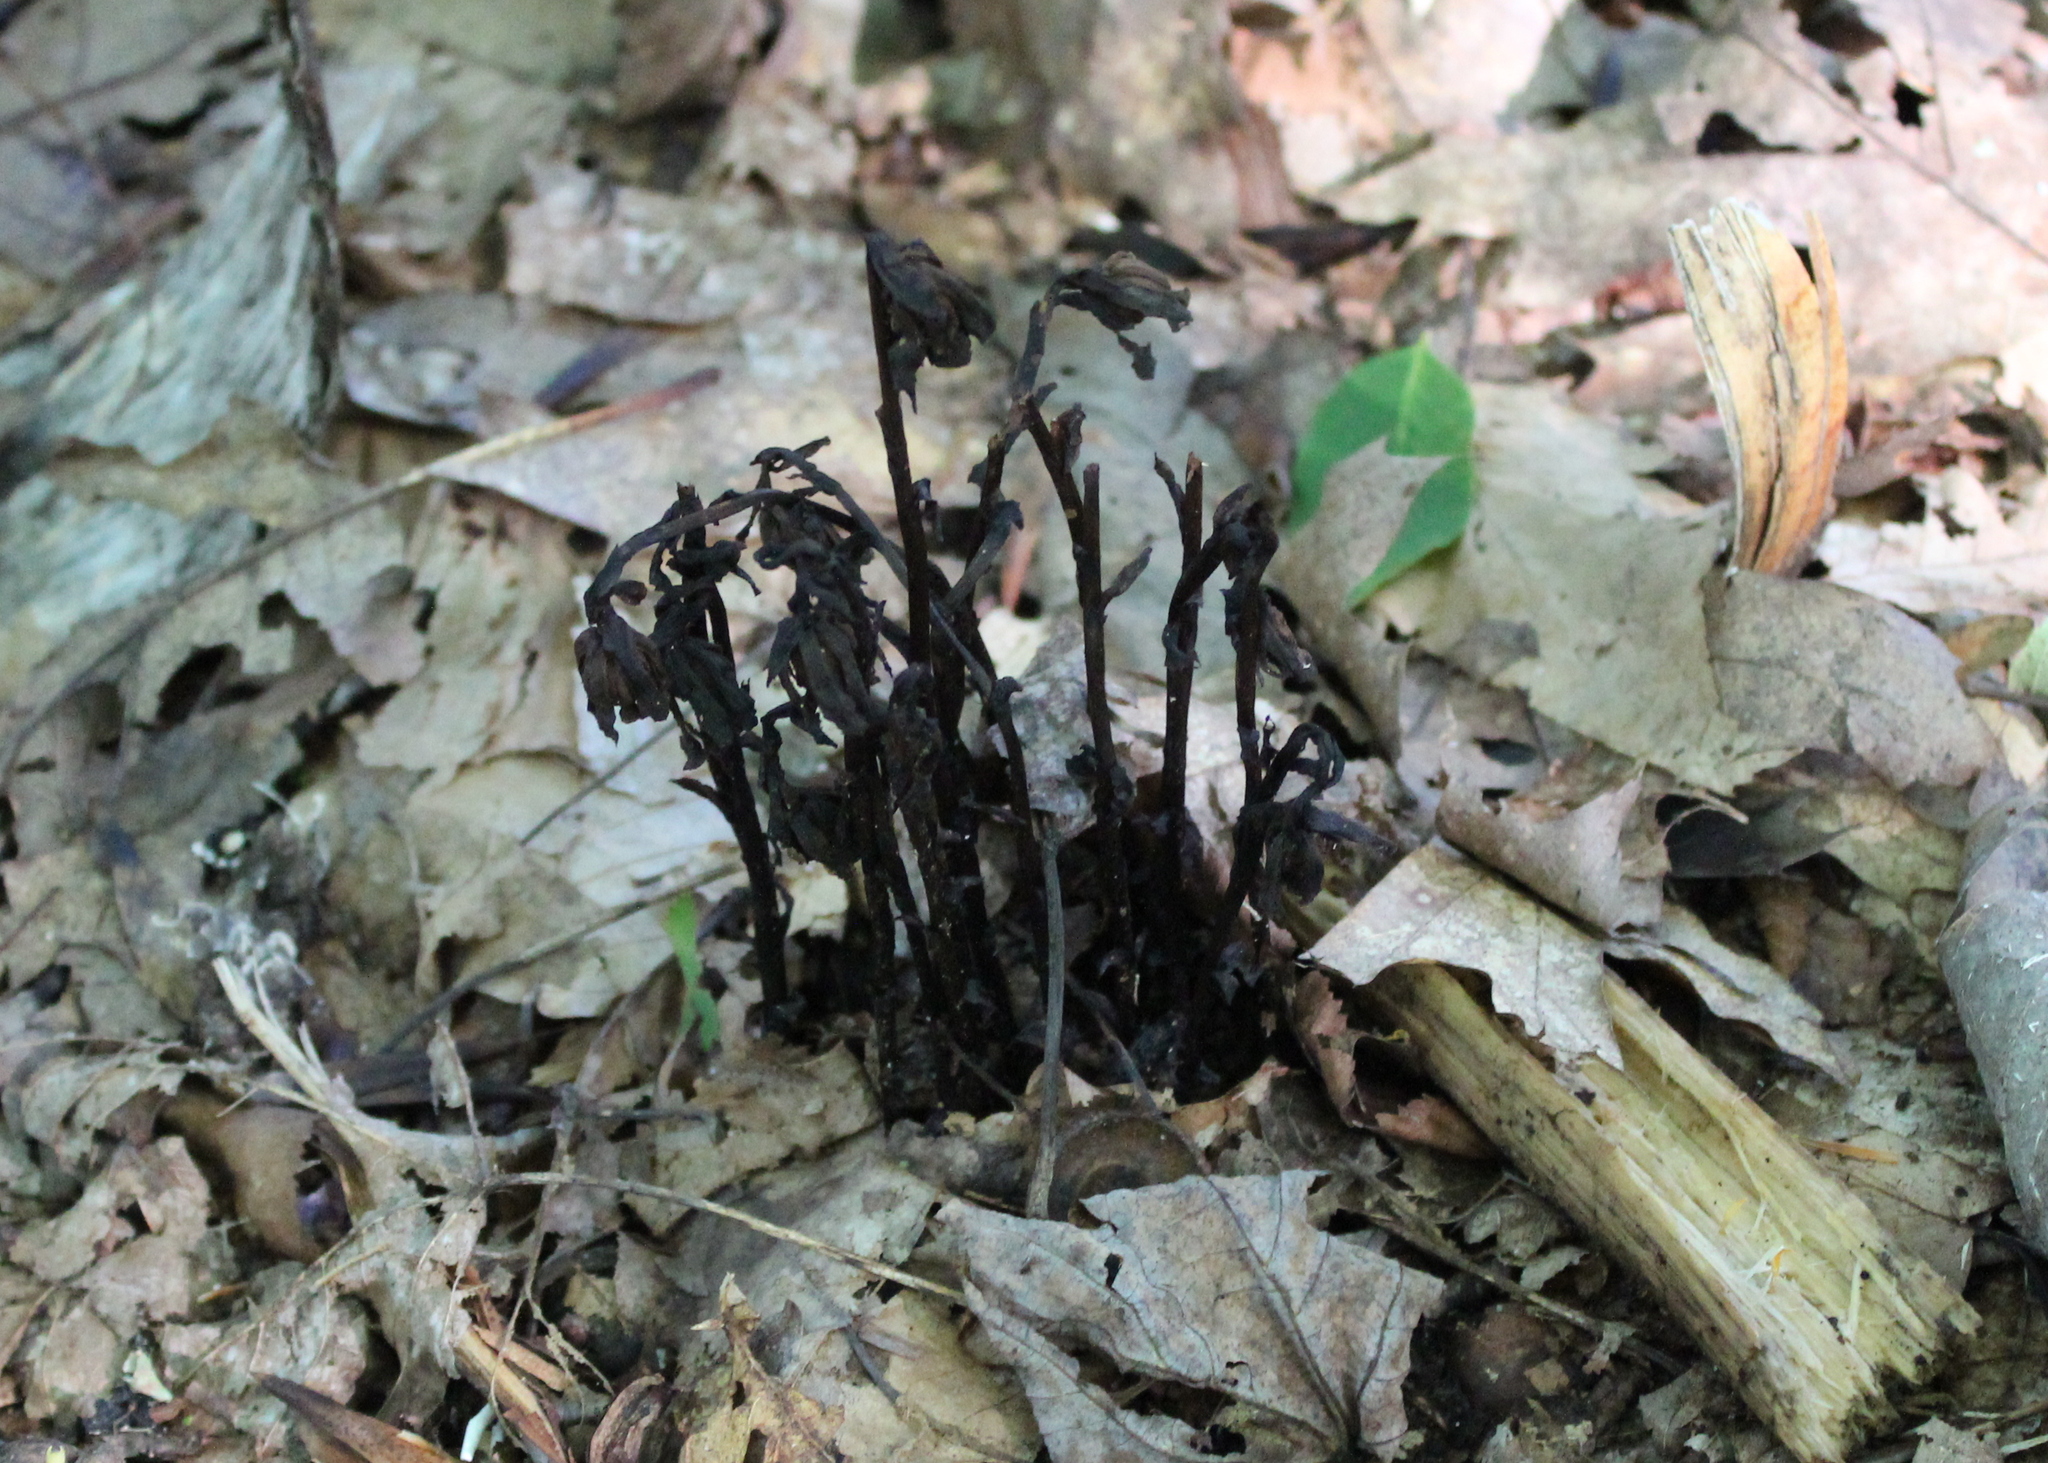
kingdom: Plantae
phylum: Tracheophyta
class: Magnoliopsida
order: Ericales
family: Ericaceae
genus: Monotropa
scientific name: Monotropa uniflora
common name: Convulsion root
